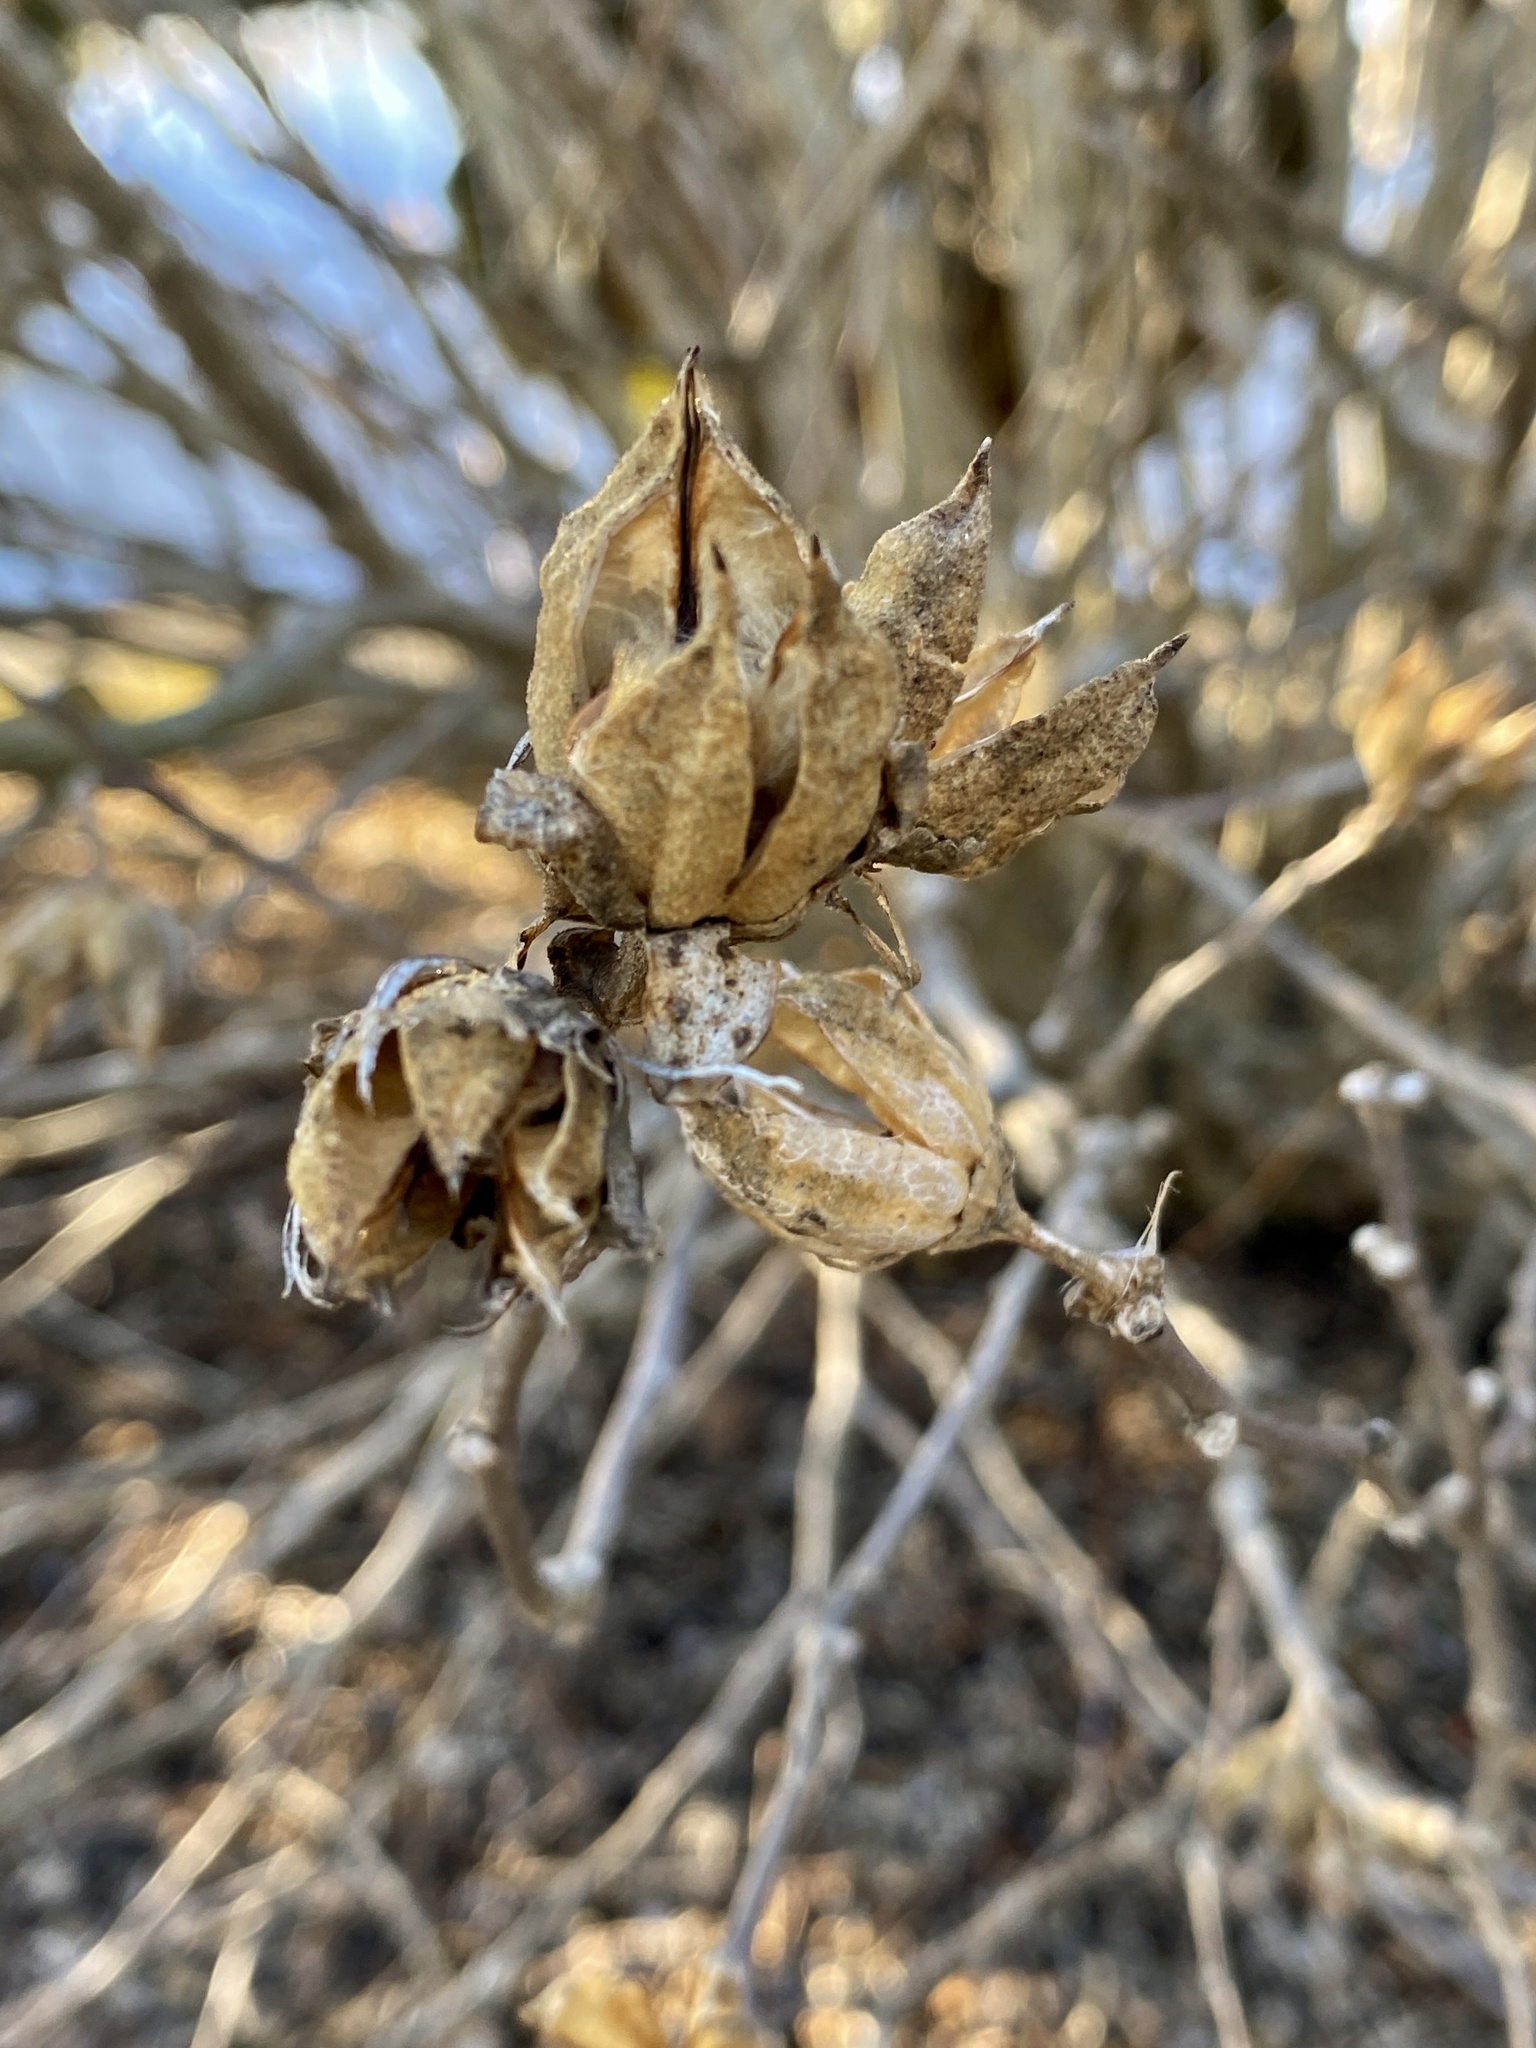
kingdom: Plantae
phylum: Tracheophyta
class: Magnoliopsida
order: Malvales
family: Malvaceae
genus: Hibiscus
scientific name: Hibiscus syriacus
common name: Syrian ketmia
